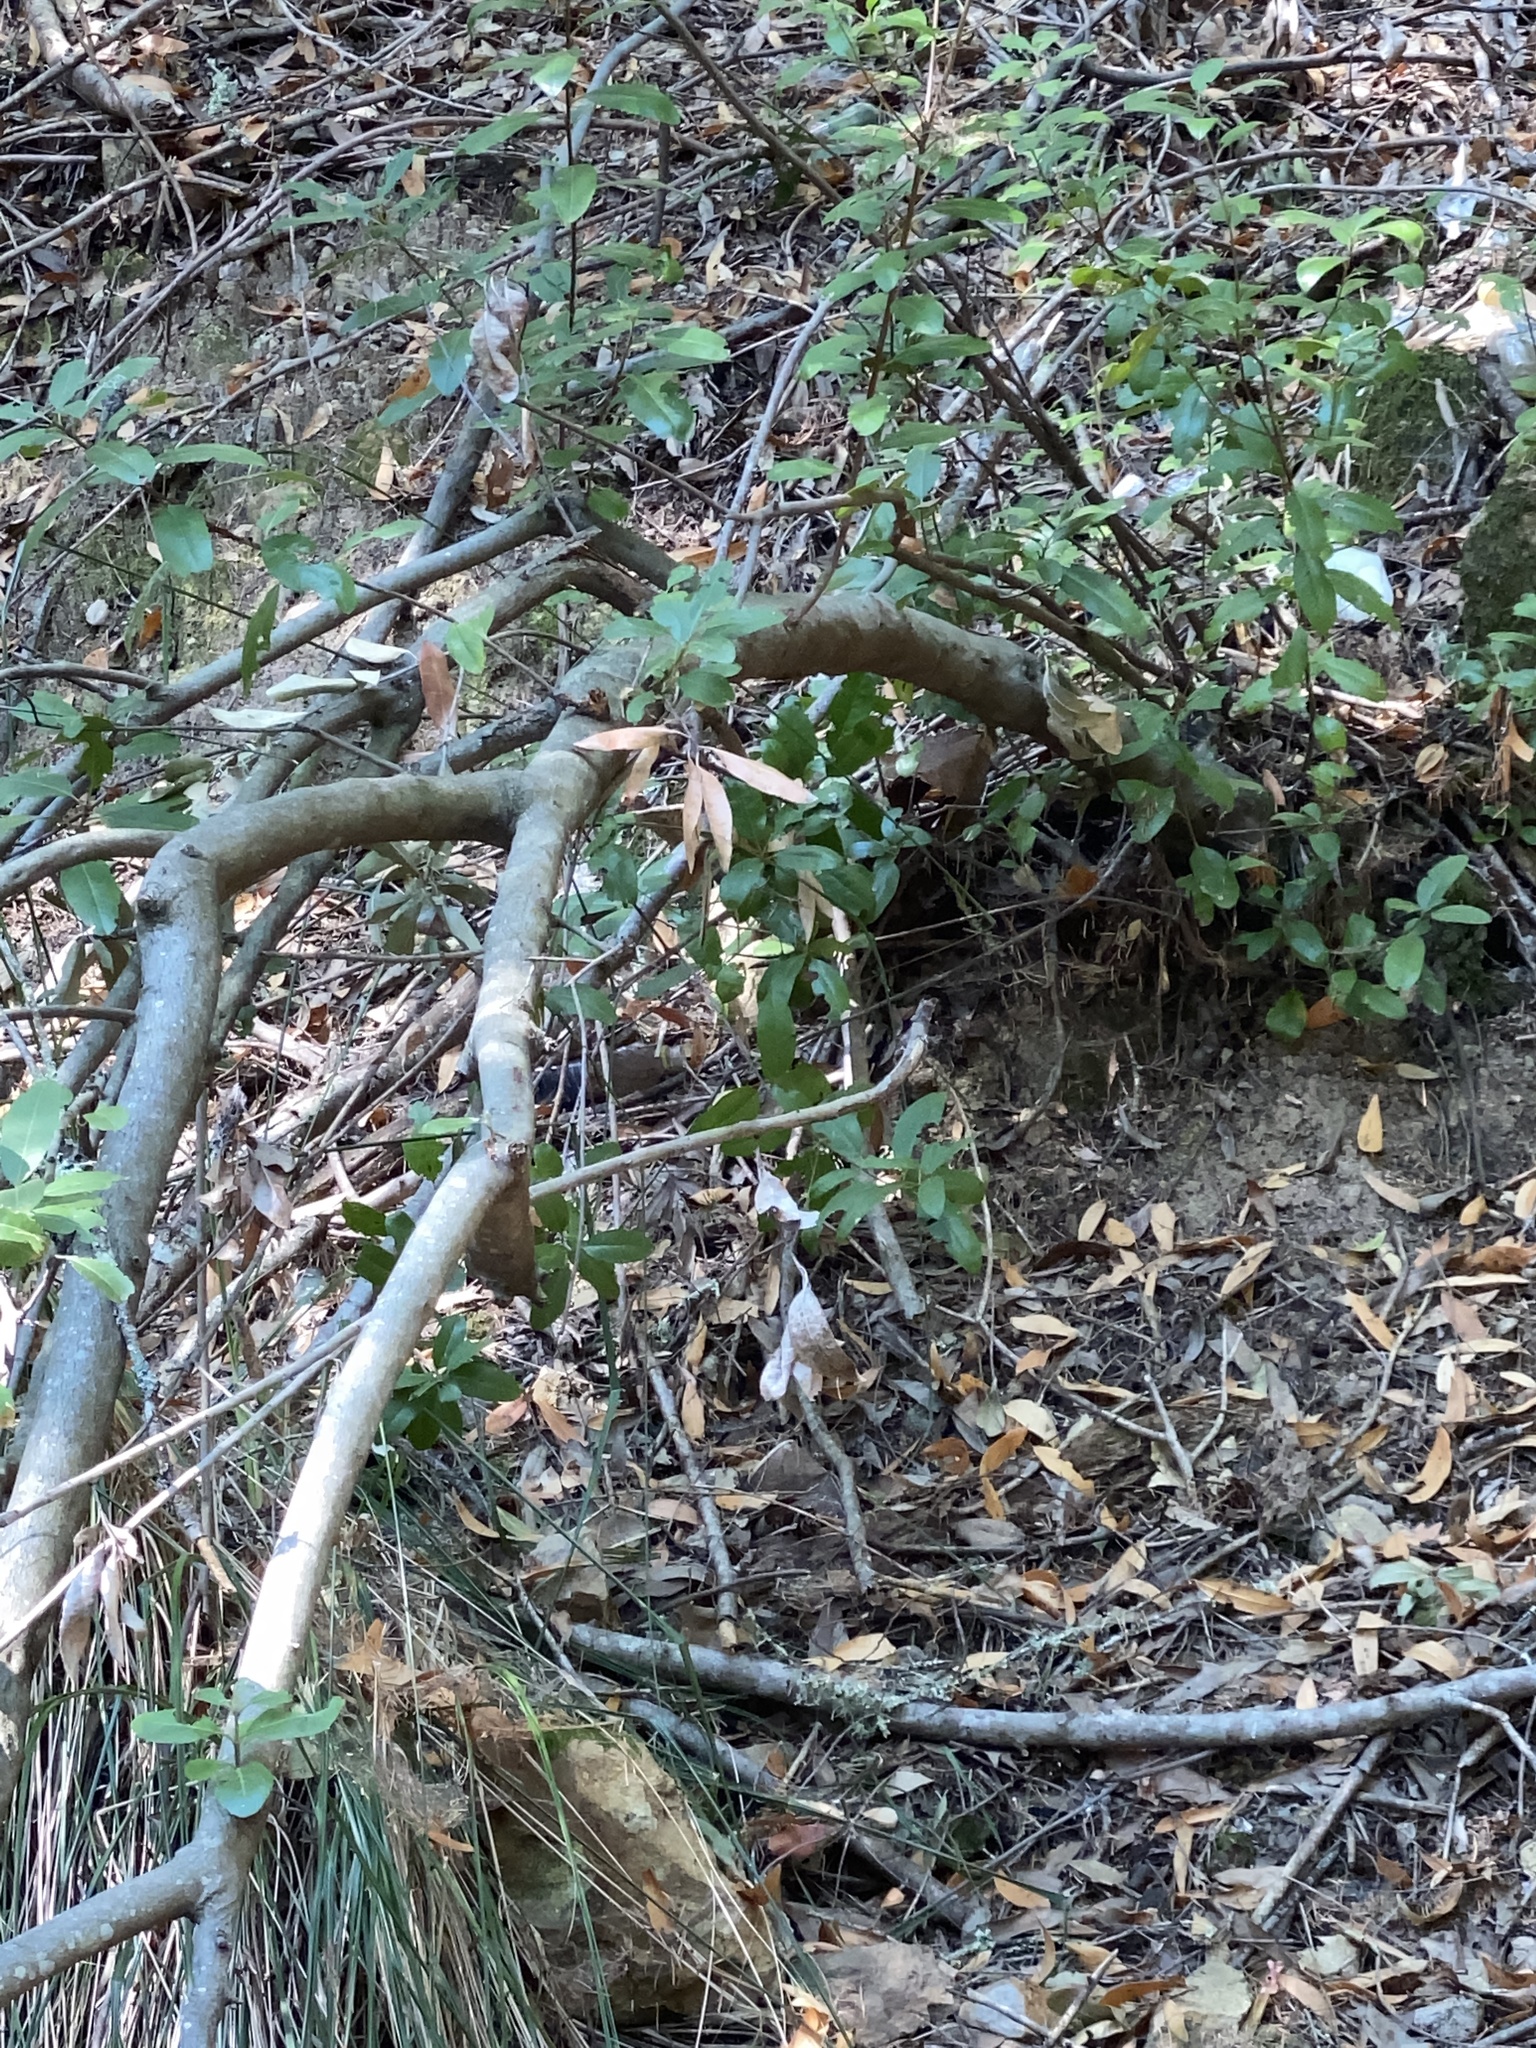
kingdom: Plantae
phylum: Tracheophyta
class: Magnoliopsida
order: Rosales
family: Rosaceae
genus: Heteromeles
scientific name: Heteromeles arbutifolia
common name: California-holly
